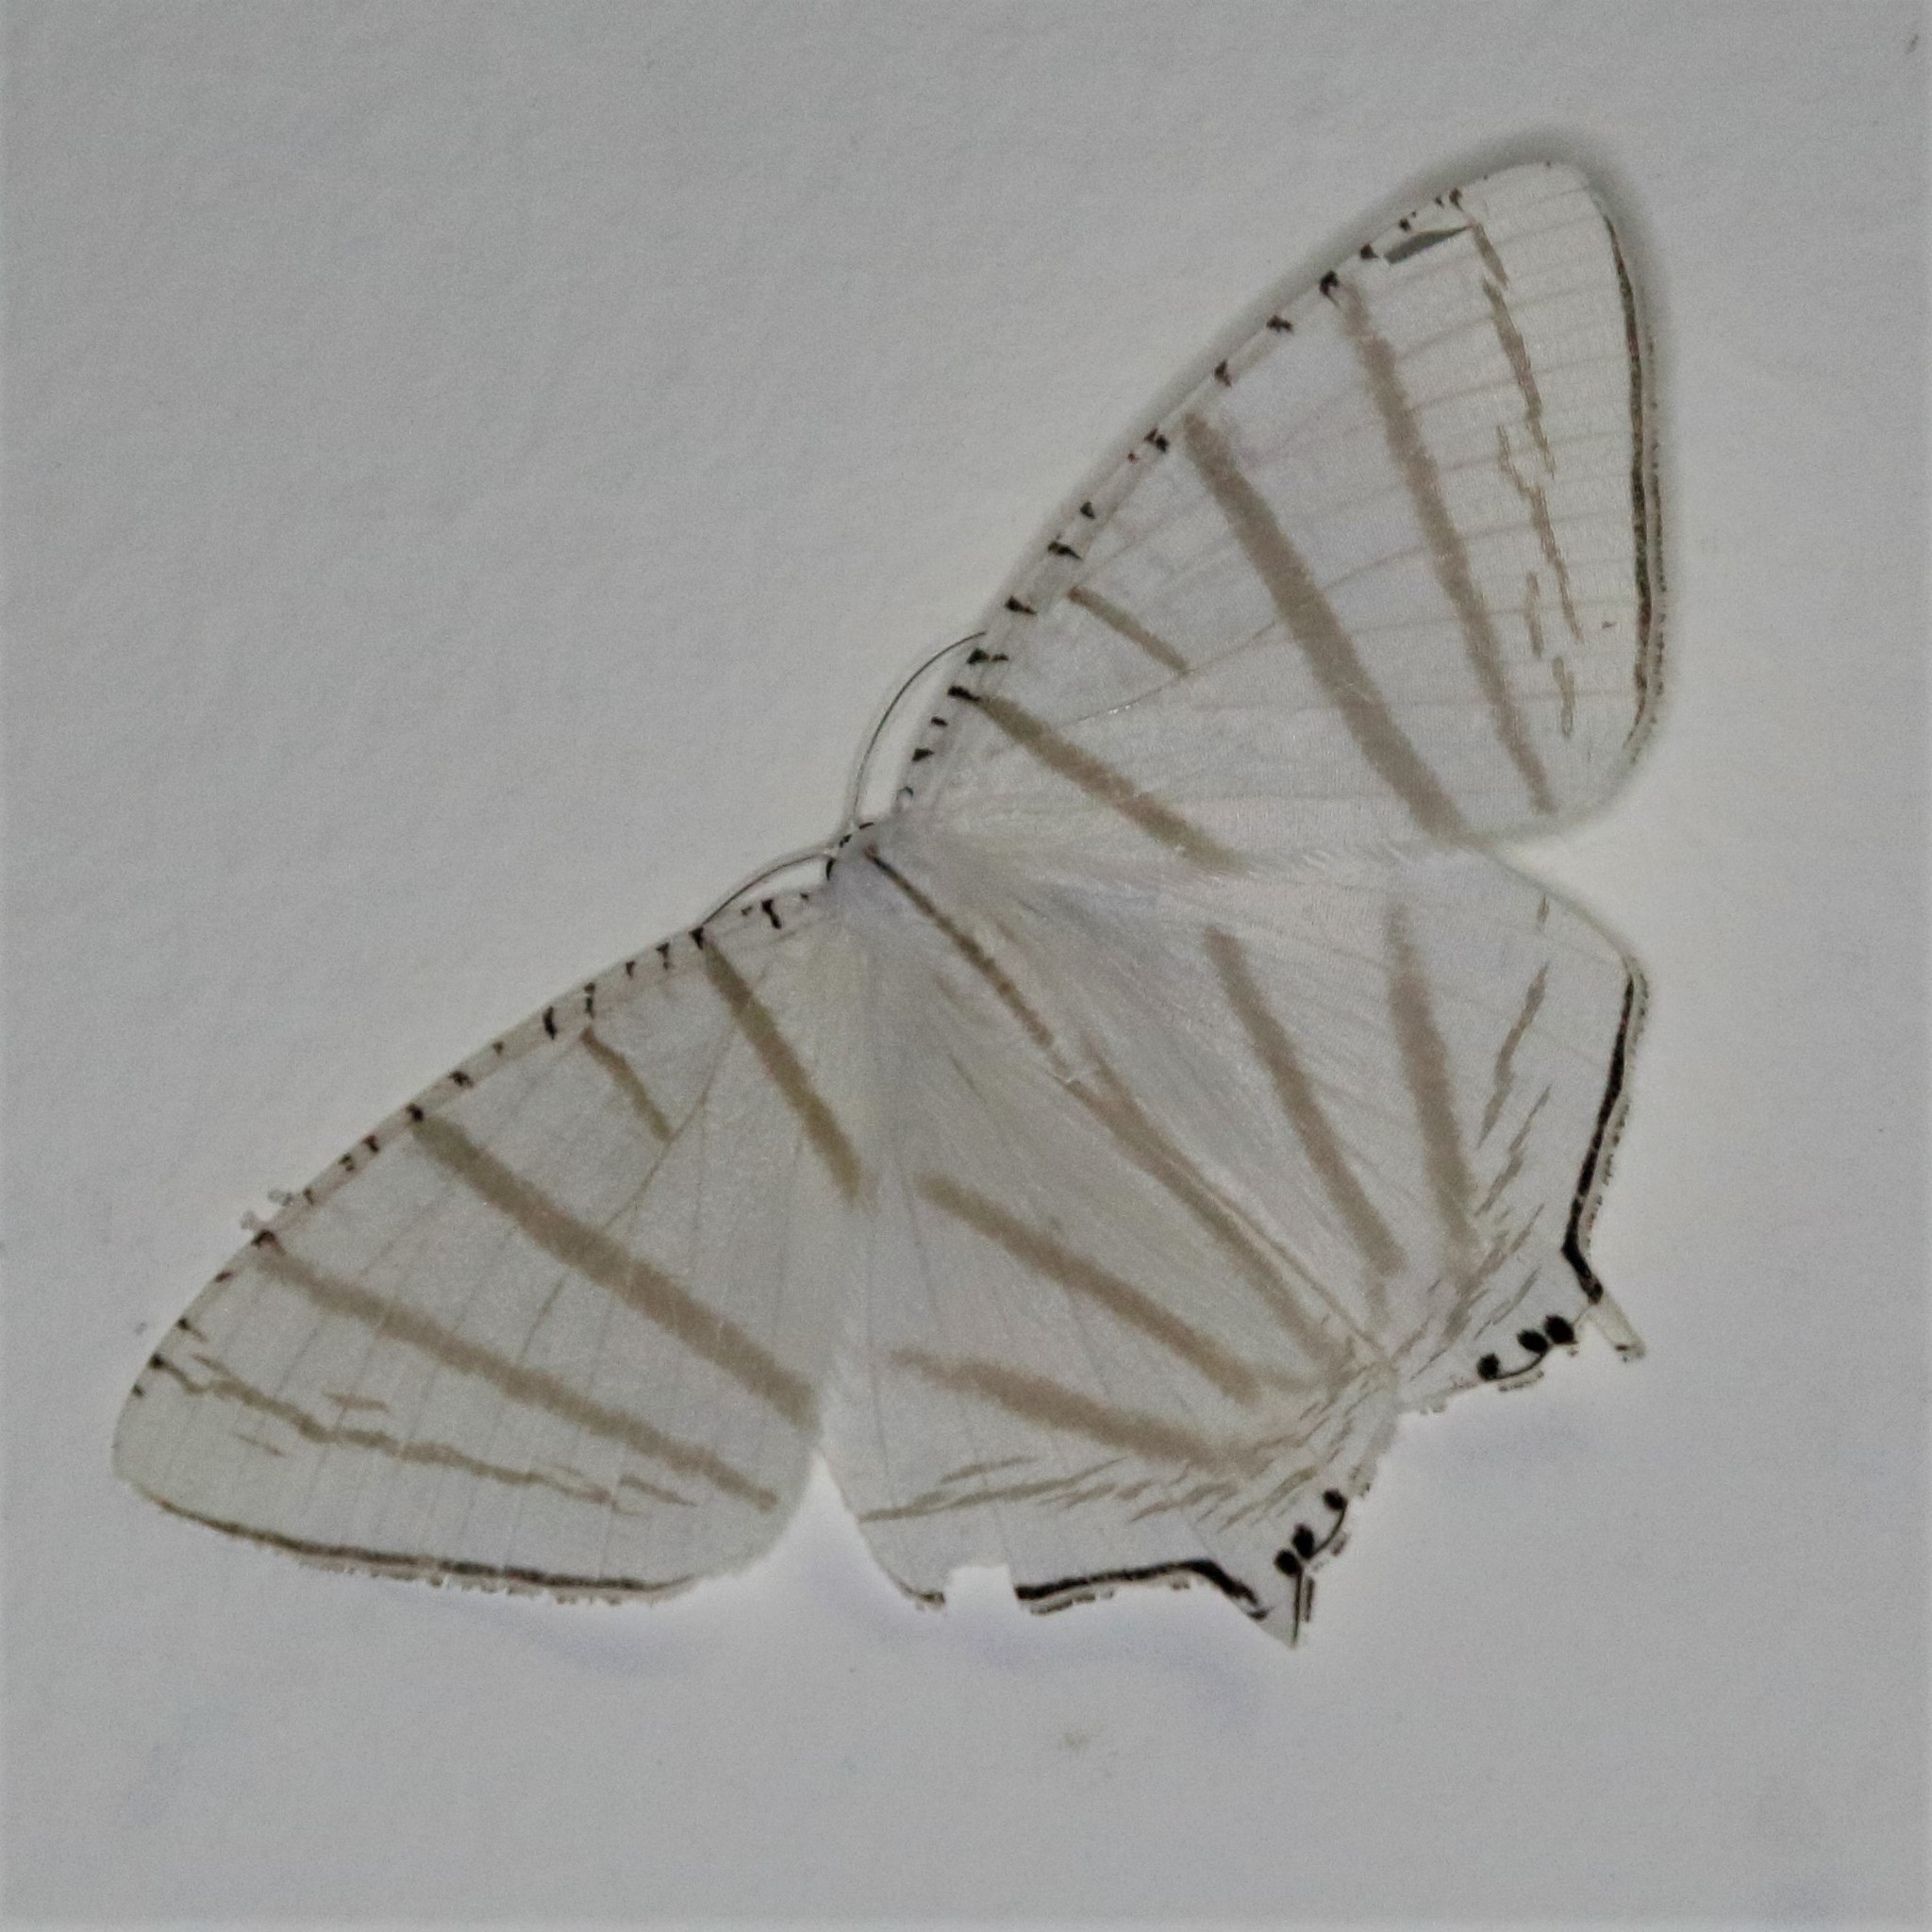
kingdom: Animalia
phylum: Arthropoda
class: Insecta
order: Lepidoptera
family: Uraniidae
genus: Urapteroides
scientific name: Urapteroides astheniata
